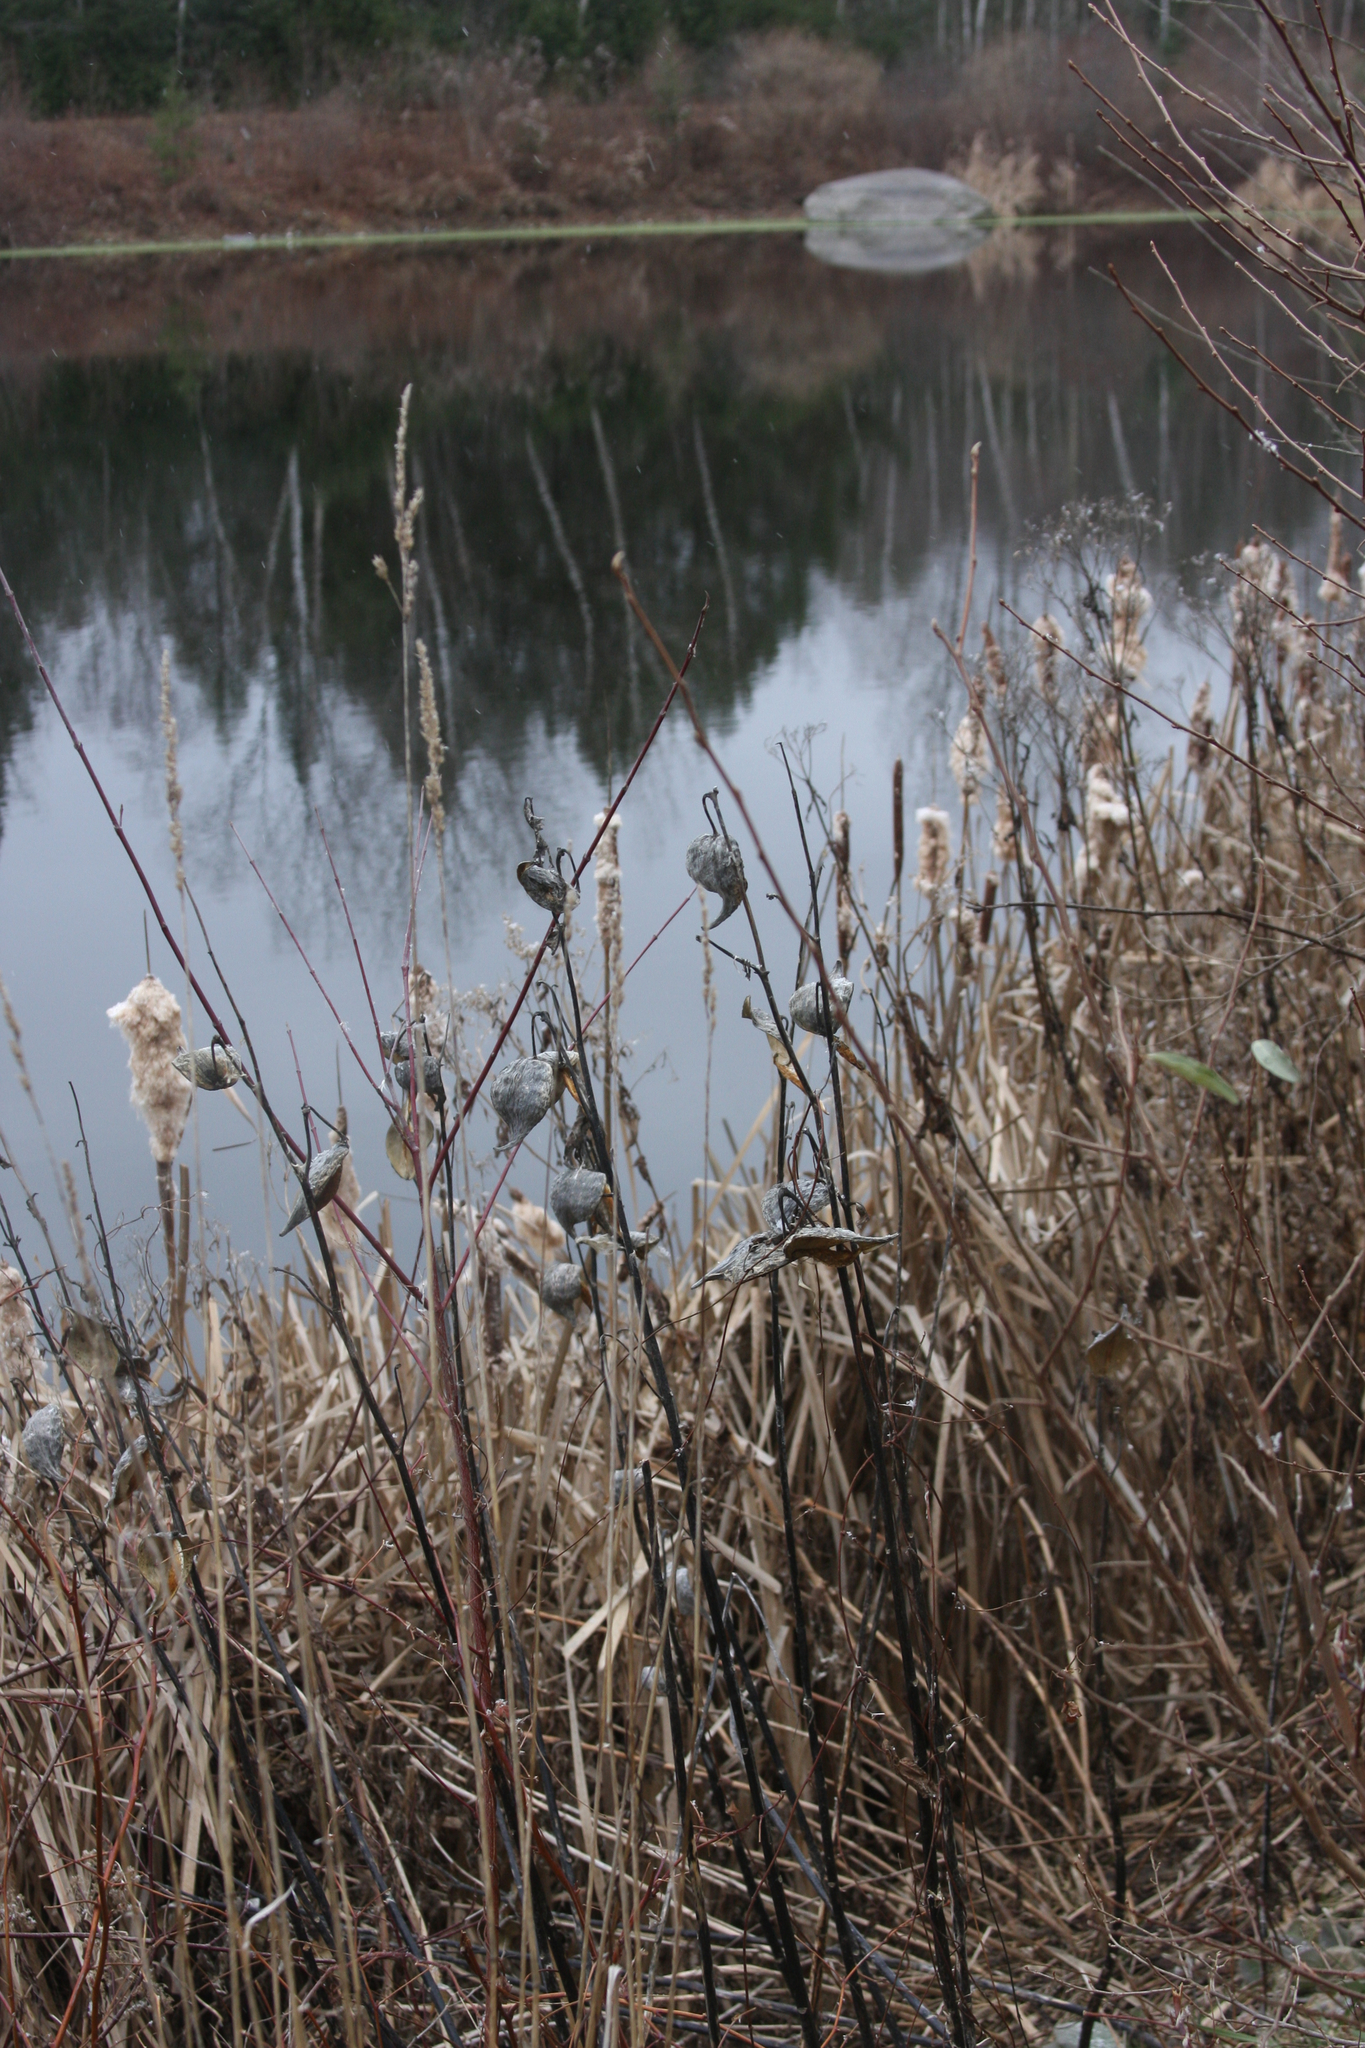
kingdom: Plantae
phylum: Tracheophyta
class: Magnoliopsida
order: Gentianales
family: Apocynaceae
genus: Asclepias
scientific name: Asclepias syriaca
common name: Common milkweed
